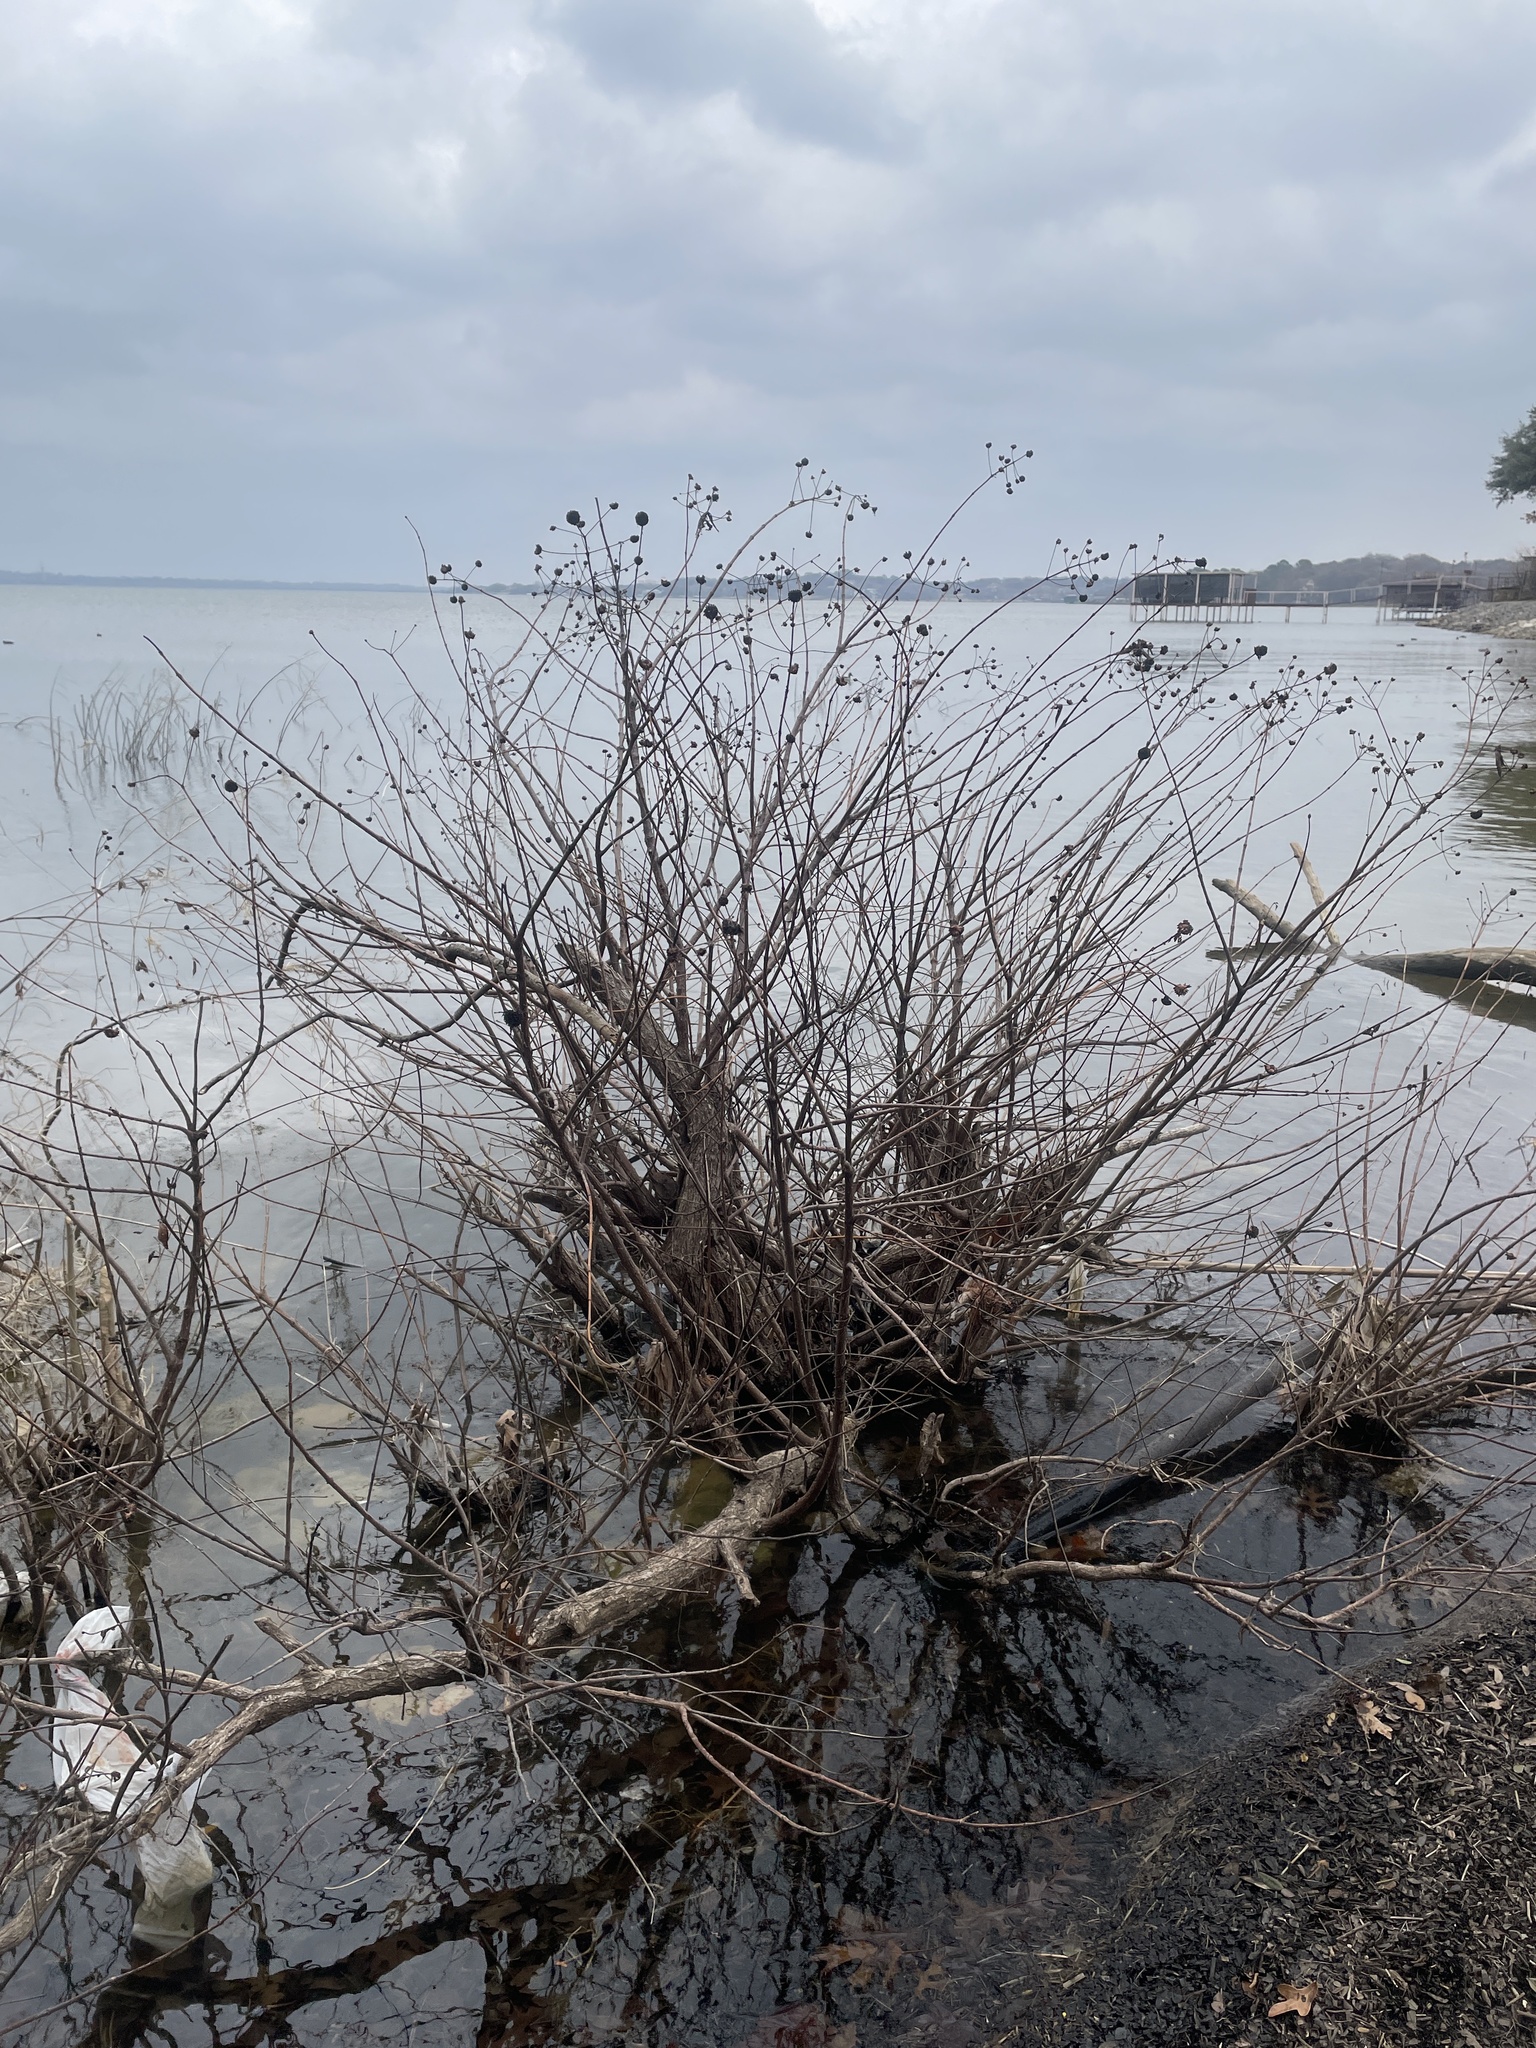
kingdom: Plantae
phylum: Tracheophyta
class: Magnoliopsida
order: Gentianales
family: Rubiaceae
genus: Cephalanthus
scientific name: Cephalanthus occidentalis
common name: Button-willow
